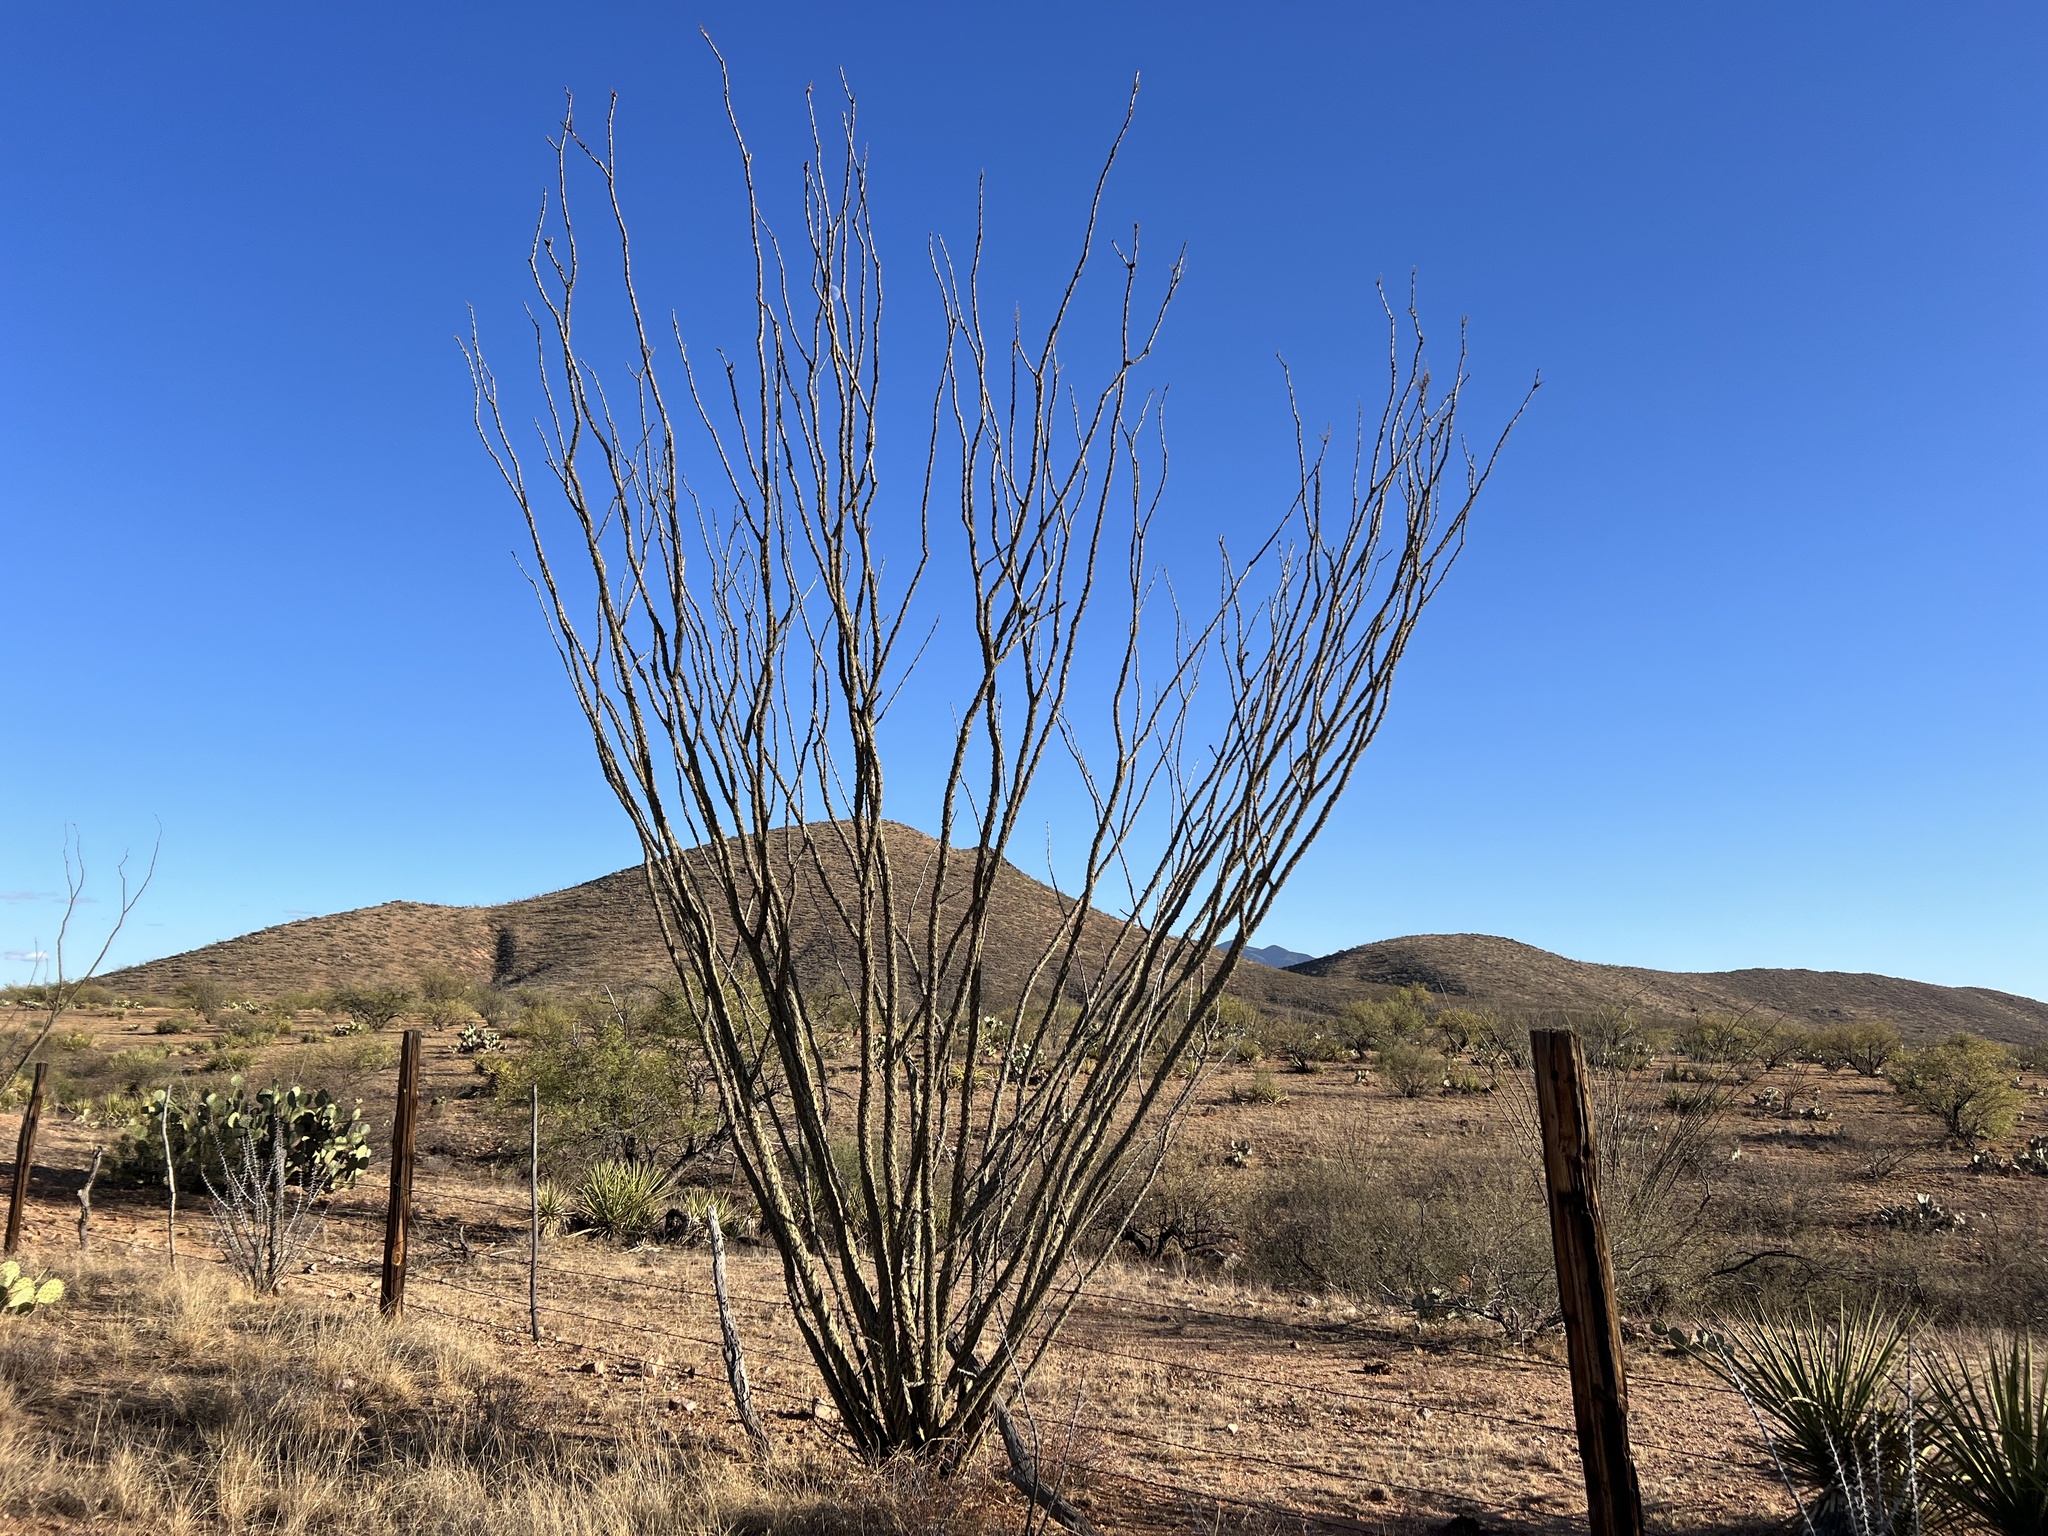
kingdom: Plantae
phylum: Tracheophyta
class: Magnoliopsida
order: Ericales
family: Fouquieriaceae
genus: Fouquieria
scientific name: Fouquieria splendens
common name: Vine-cactus
